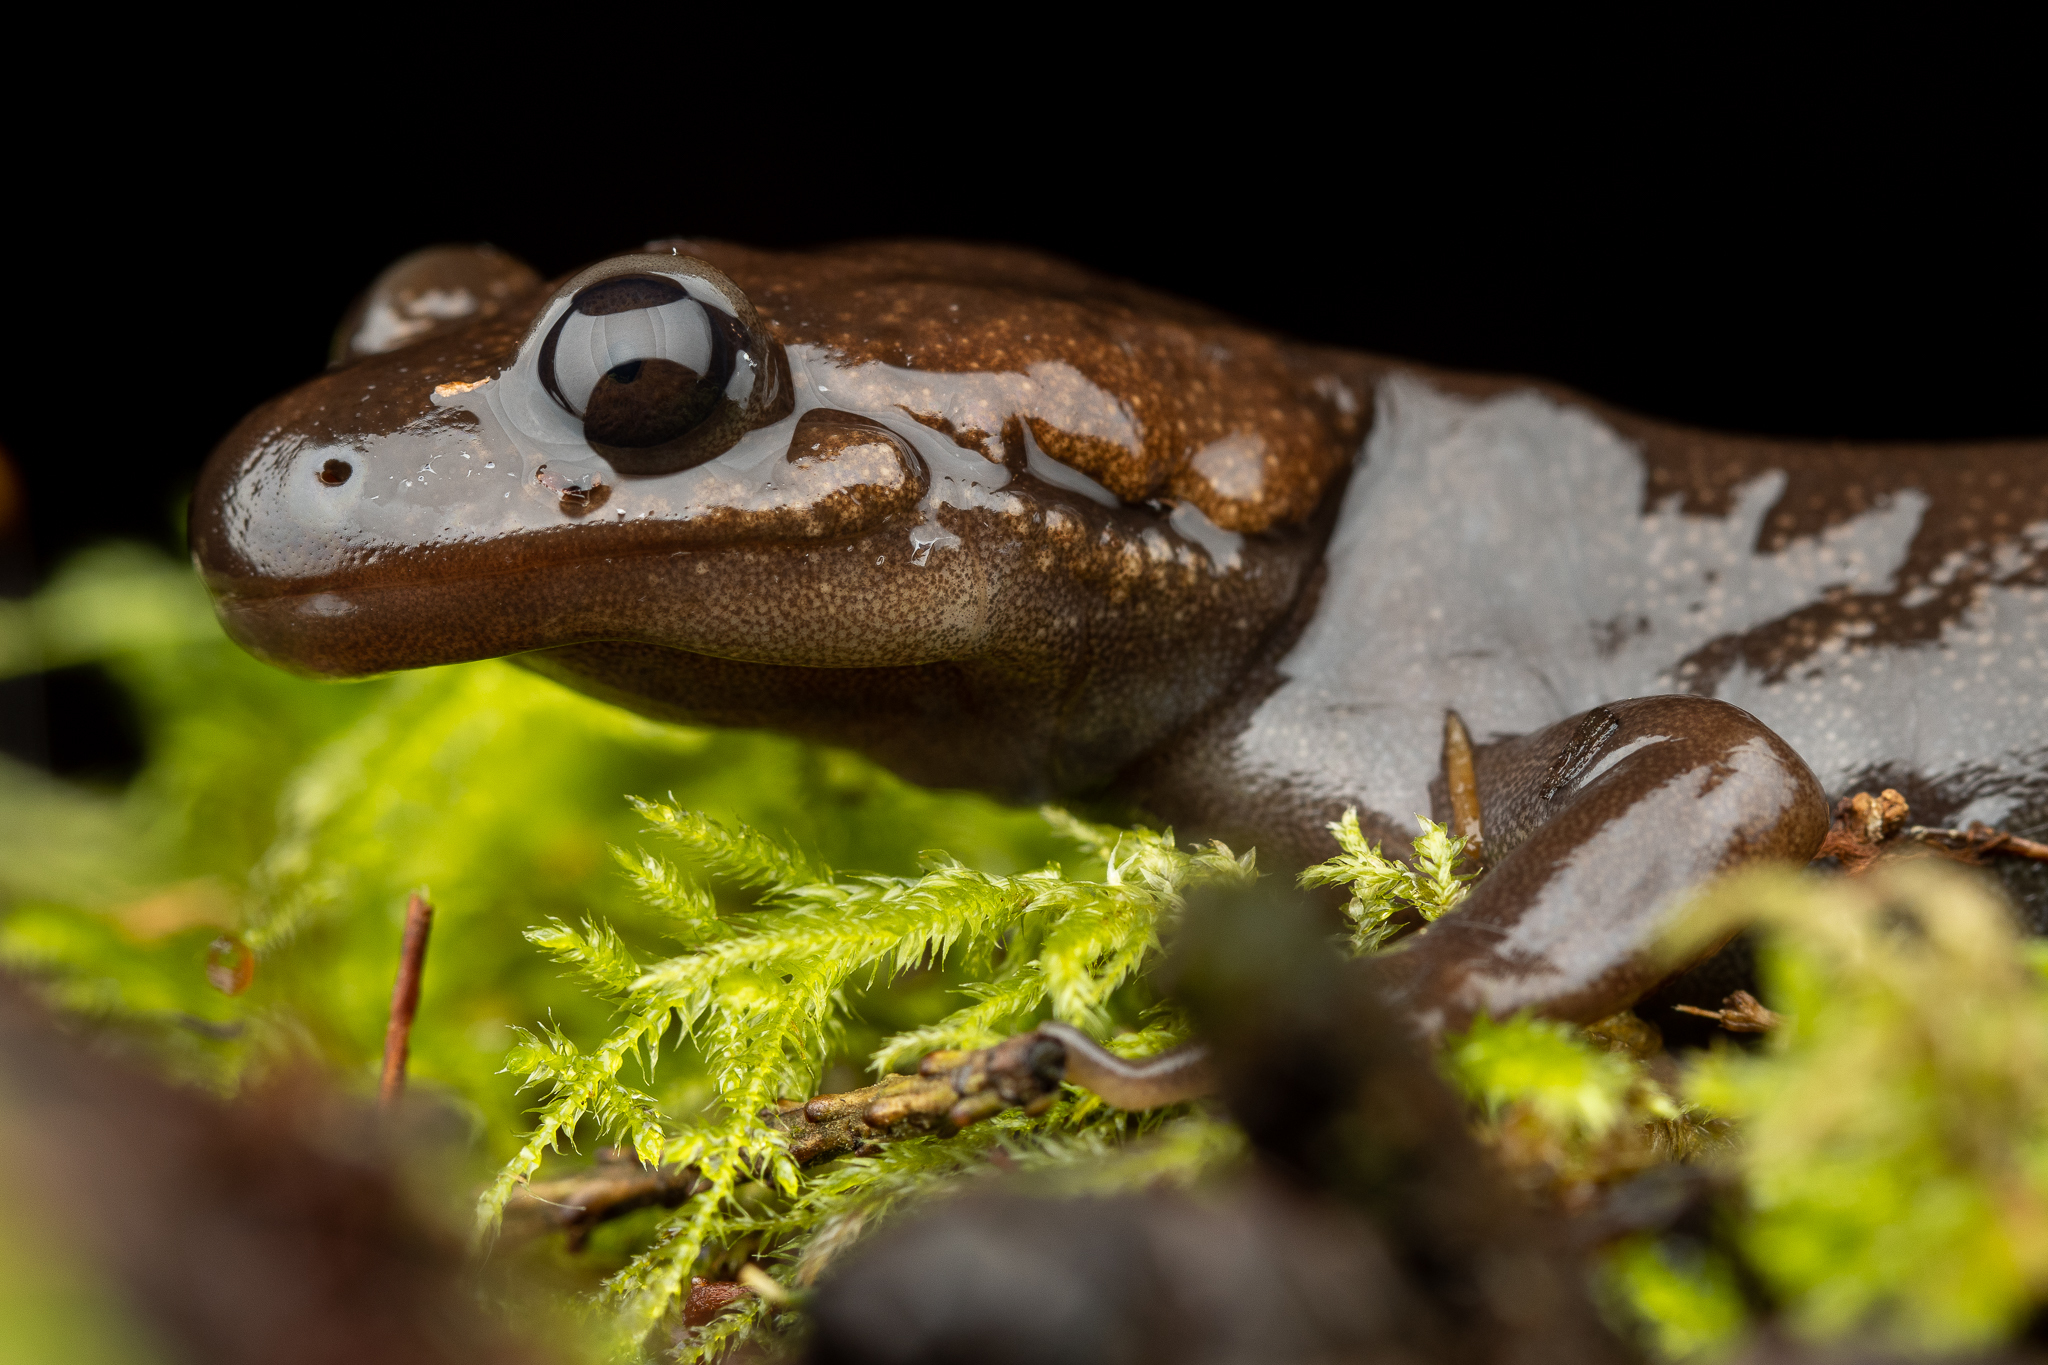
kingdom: Animalia
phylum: Chordata
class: Amphibia
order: Caudata
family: Ambystomatidae
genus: Ambystoma
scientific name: Ambystoma gracile
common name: Northwestern salamander
